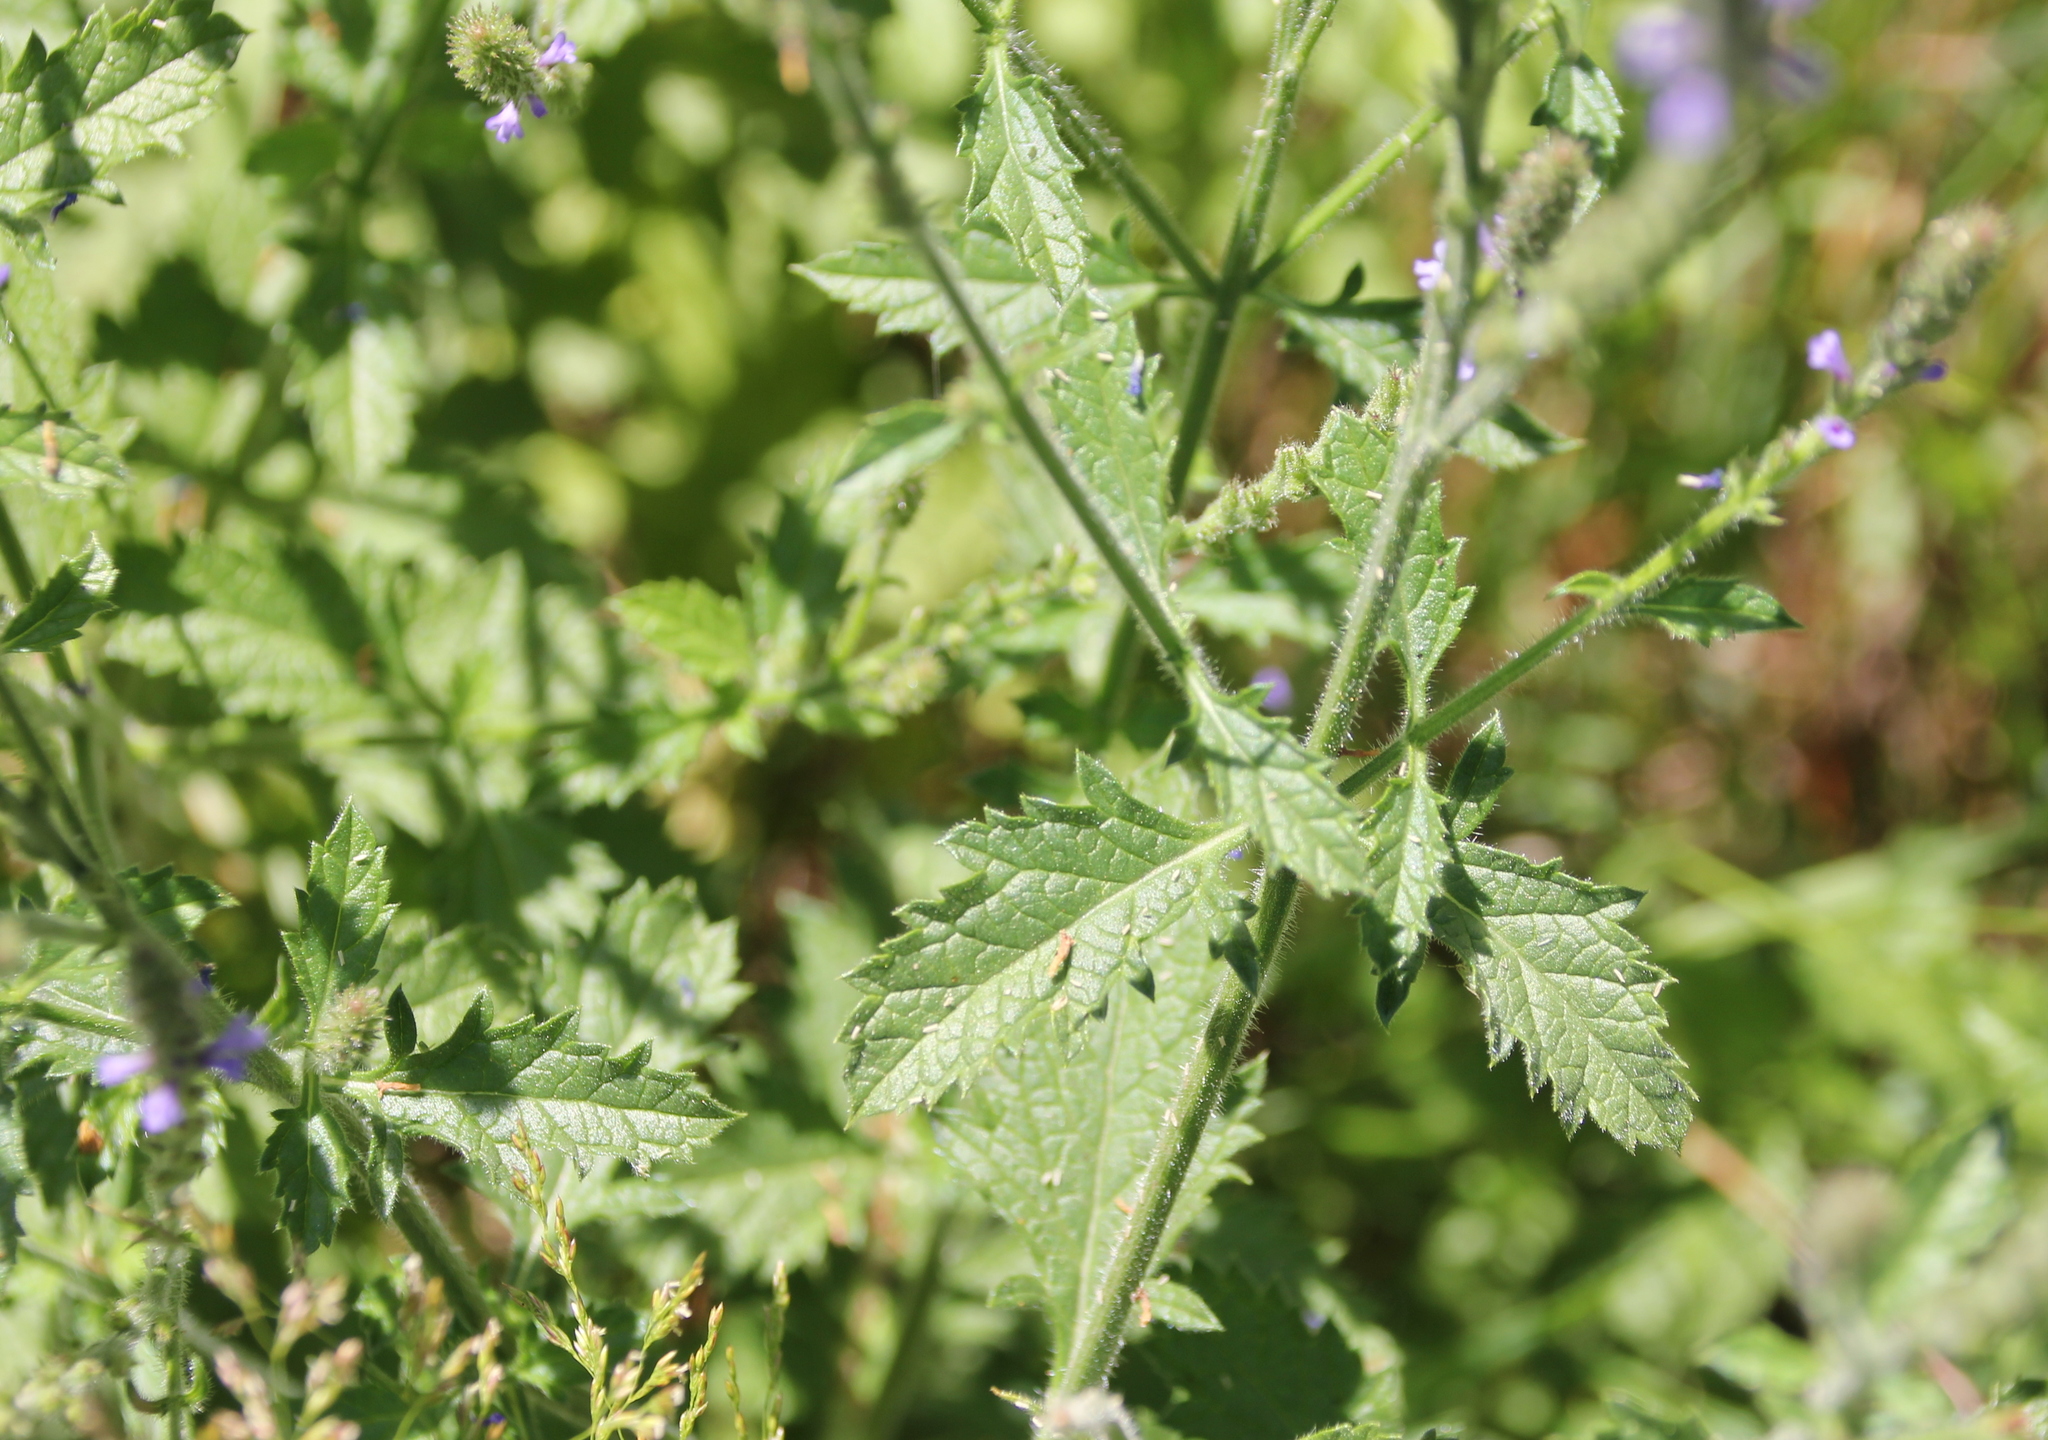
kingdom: Plantae
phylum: Tracheophyta
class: Magnoliopsida
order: Lamiales
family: Verbenaceae
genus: Verbena
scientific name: Verbena lasiostachys
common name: Vervain
